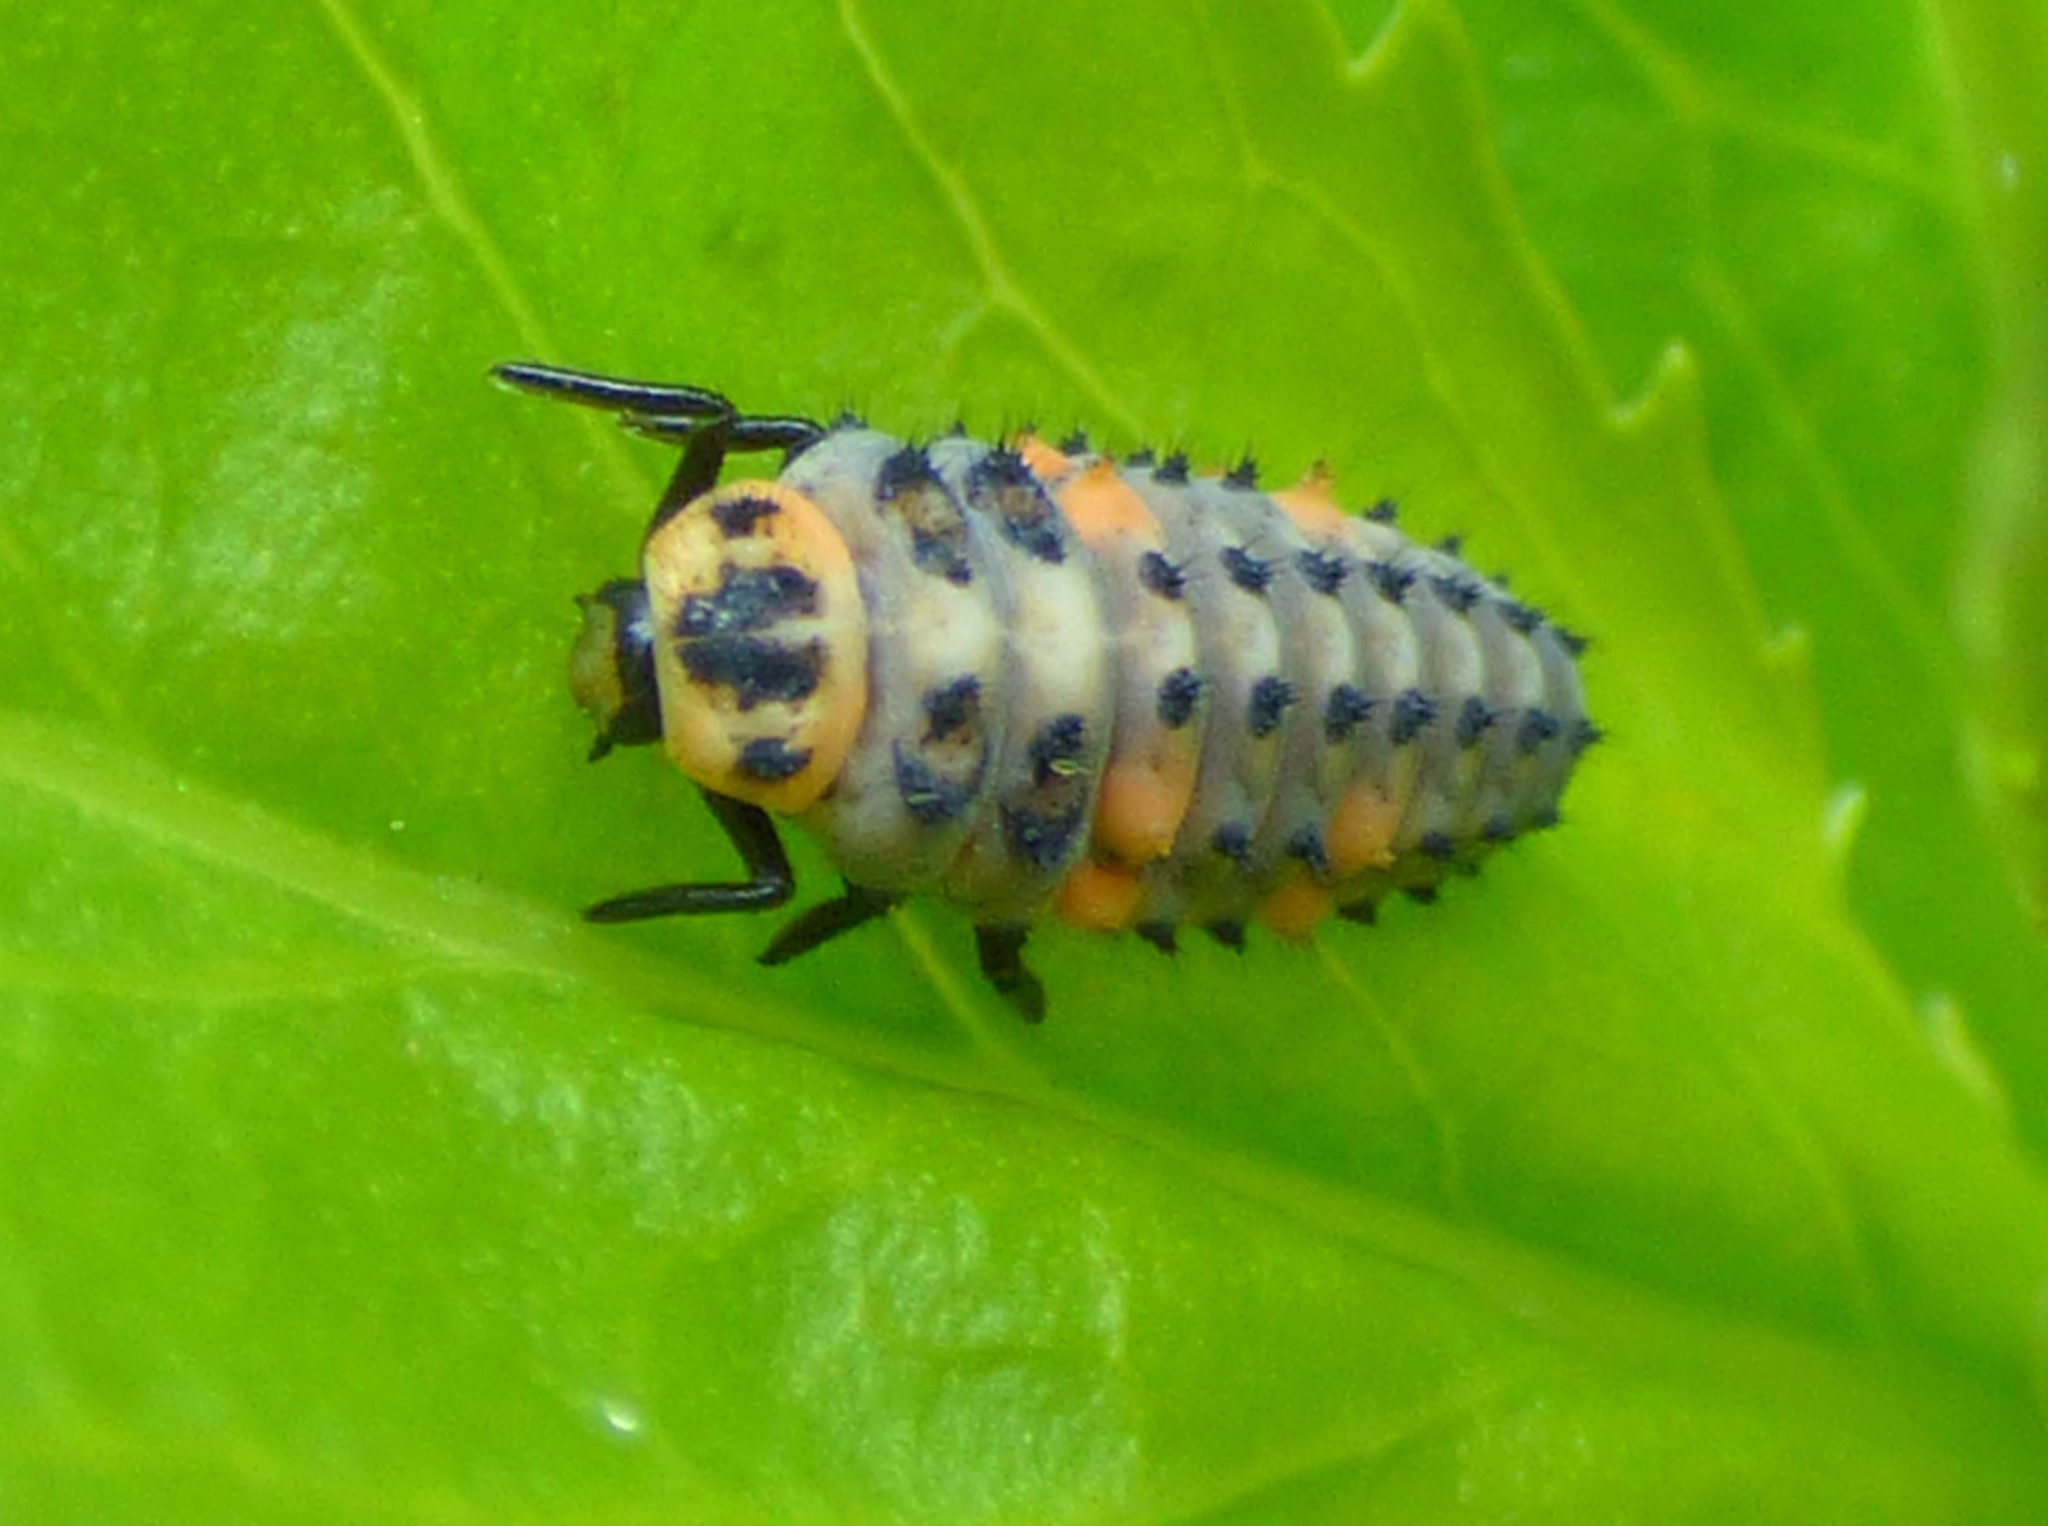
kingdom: Animalia
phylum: Arthropoda
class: Insecta
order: Coleoptera
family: Coccinellidae
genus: Coccinella
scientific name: Coccinella septempunctata
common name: Sevenspotted lady beetle
